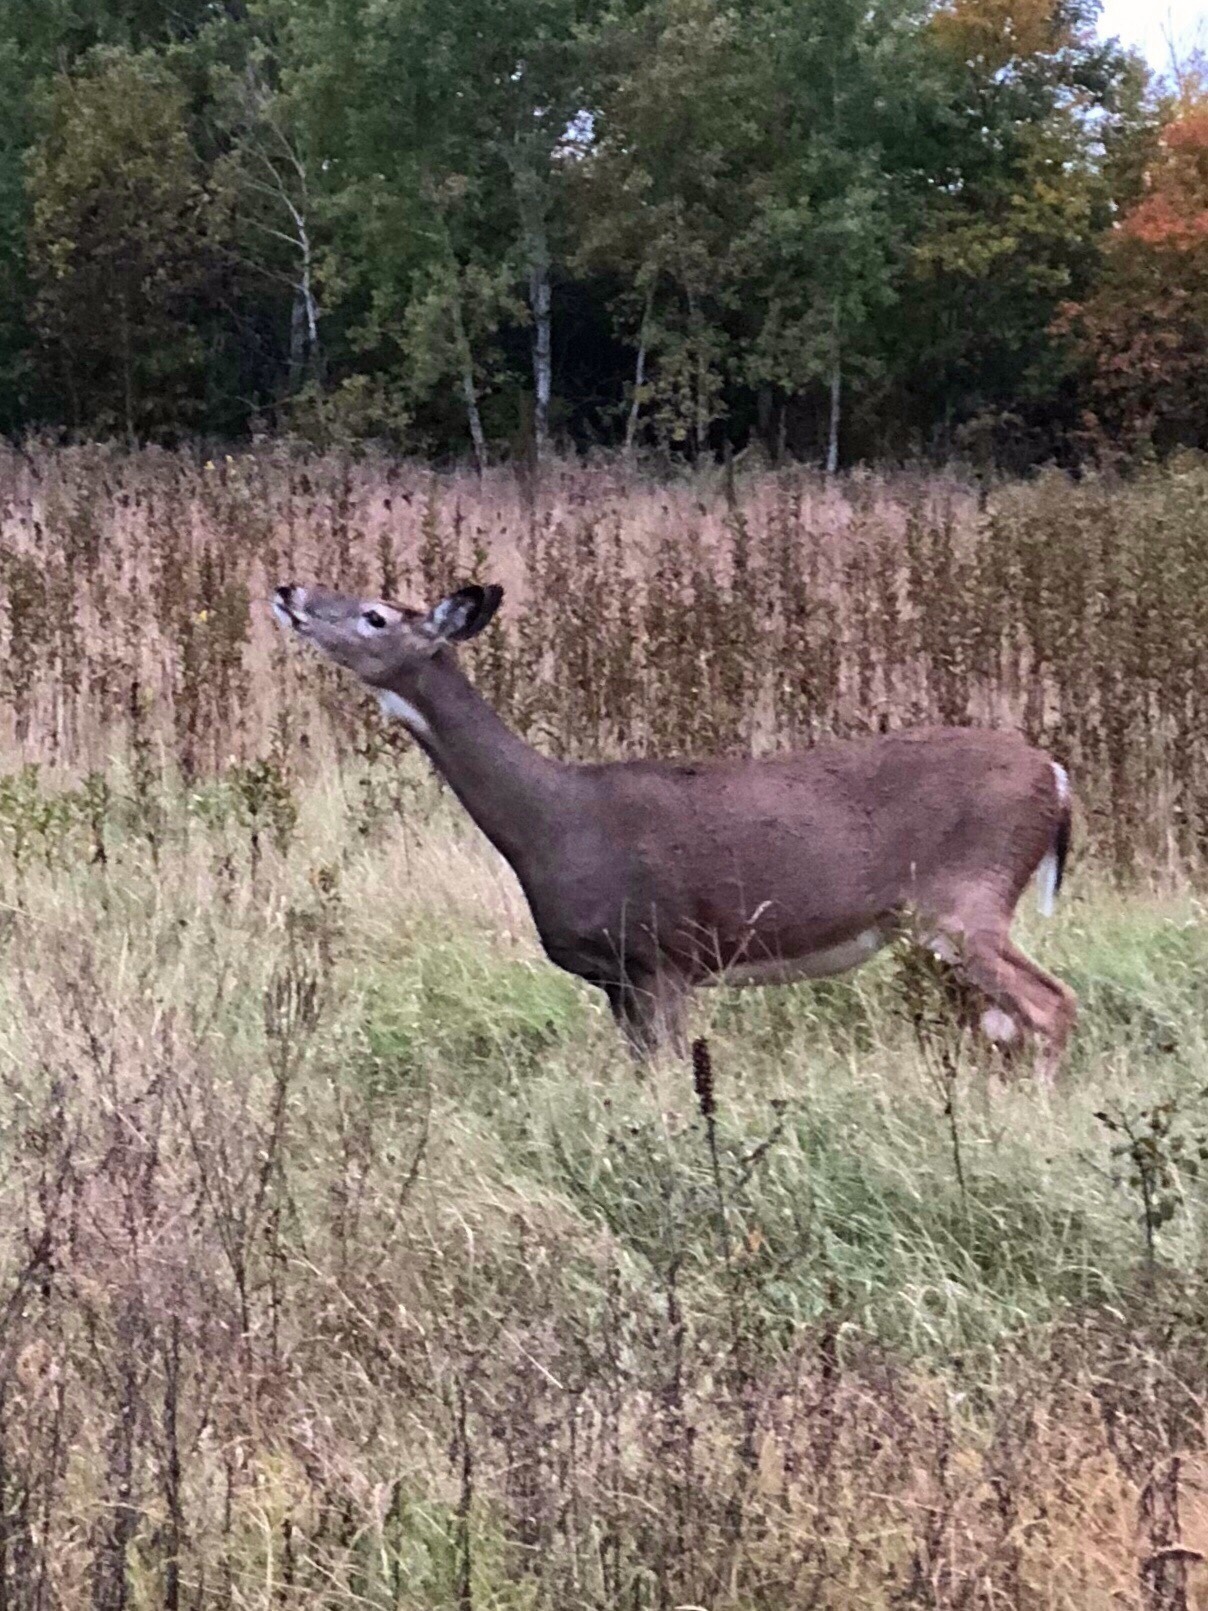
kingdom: Animalia
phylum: Chordata
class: Mammalia
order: Artiodactyla
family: Cervidae
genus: Odocoileus
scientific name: Odocoileus virginianus
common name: White-tailed deer
